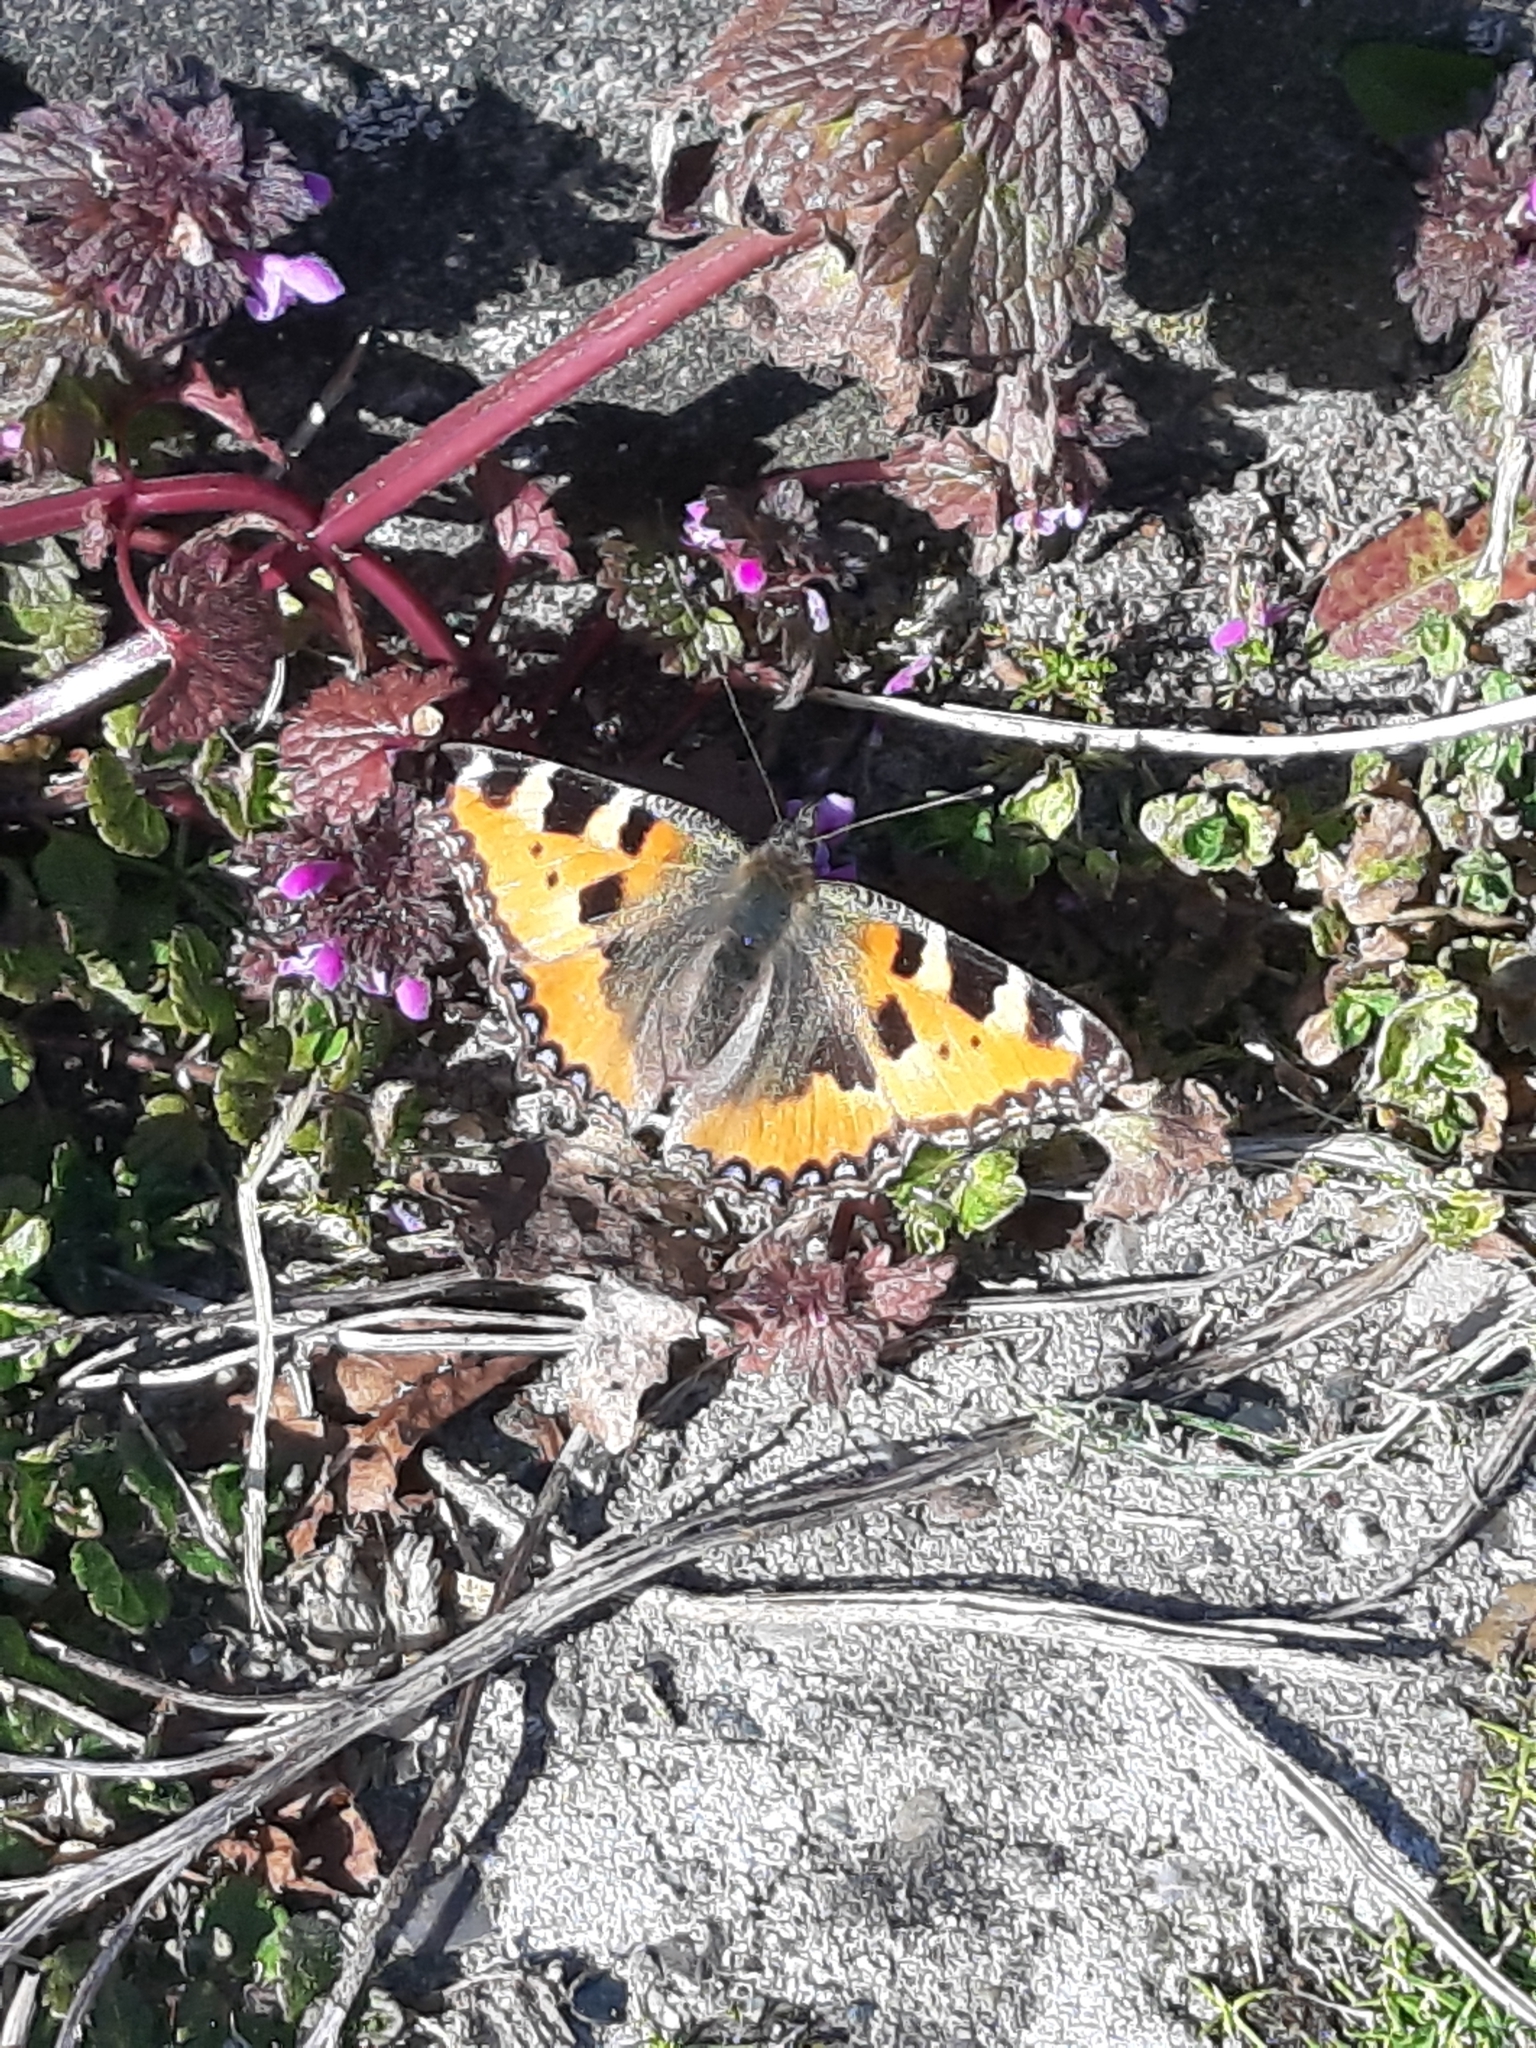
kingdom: Animalia
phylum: Arthropoda
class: Insecta
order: Lepidoptera
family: Nymphalidae
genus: Aglais
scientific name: Aglais urticae
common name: Small tortoiseshell
